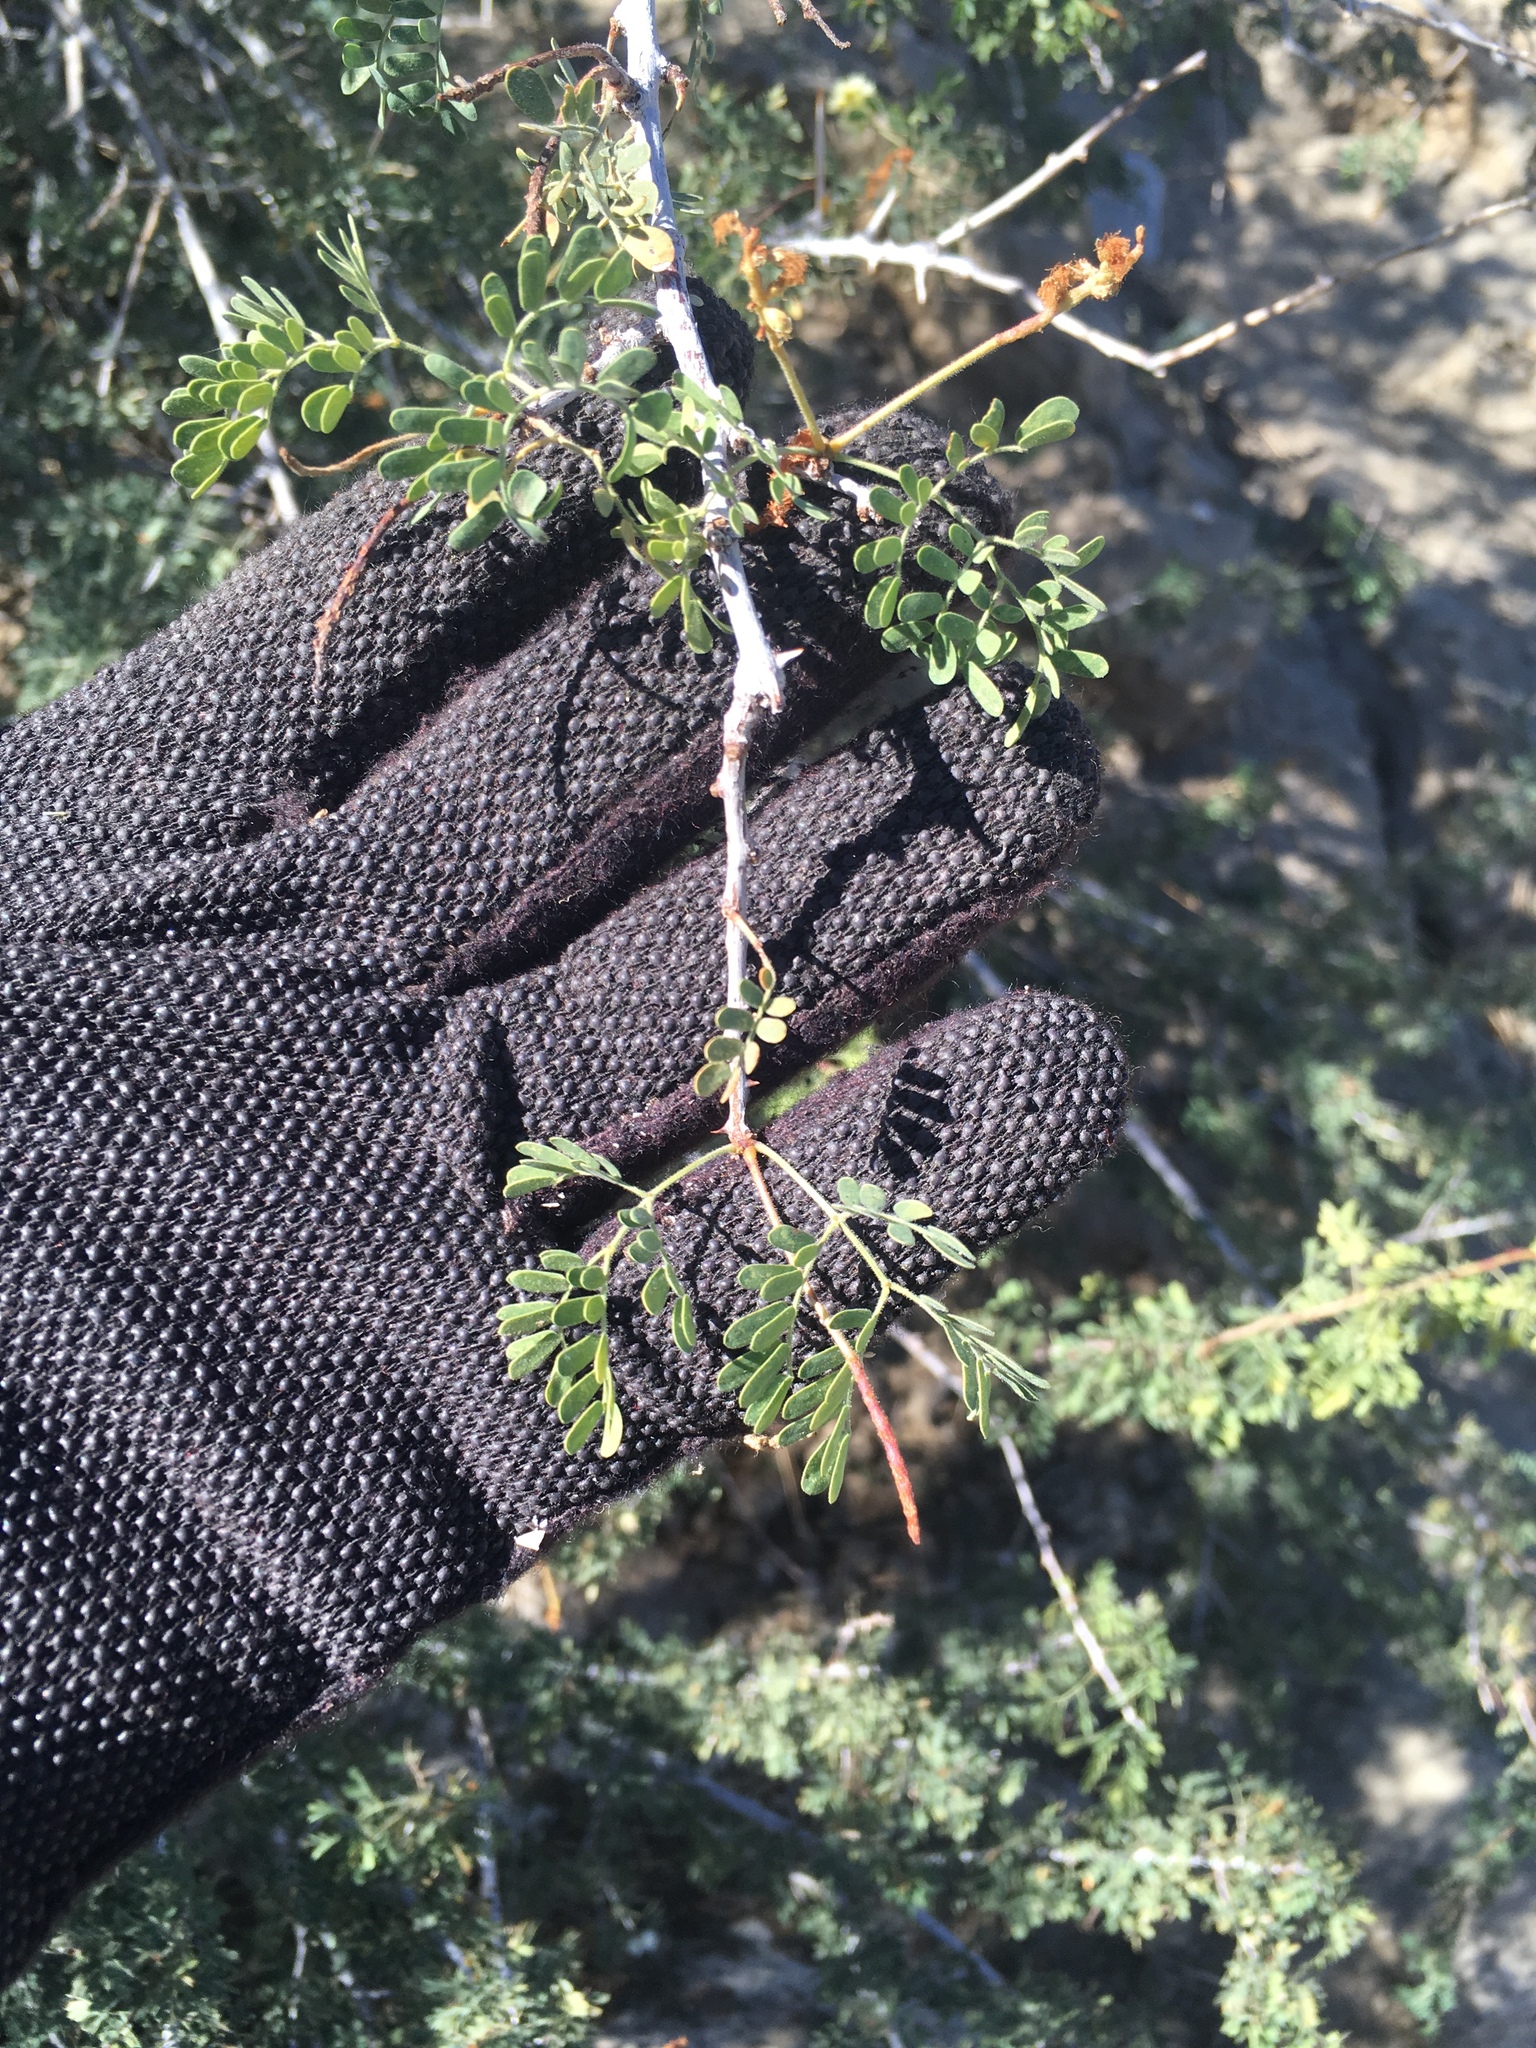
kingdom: Plantae
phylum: Tracheophyta
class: Magnoliopsida
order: Fabales
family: Fabaceae
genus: Senegalia
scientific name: Senegalia greggii
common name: Texas-mimosa
